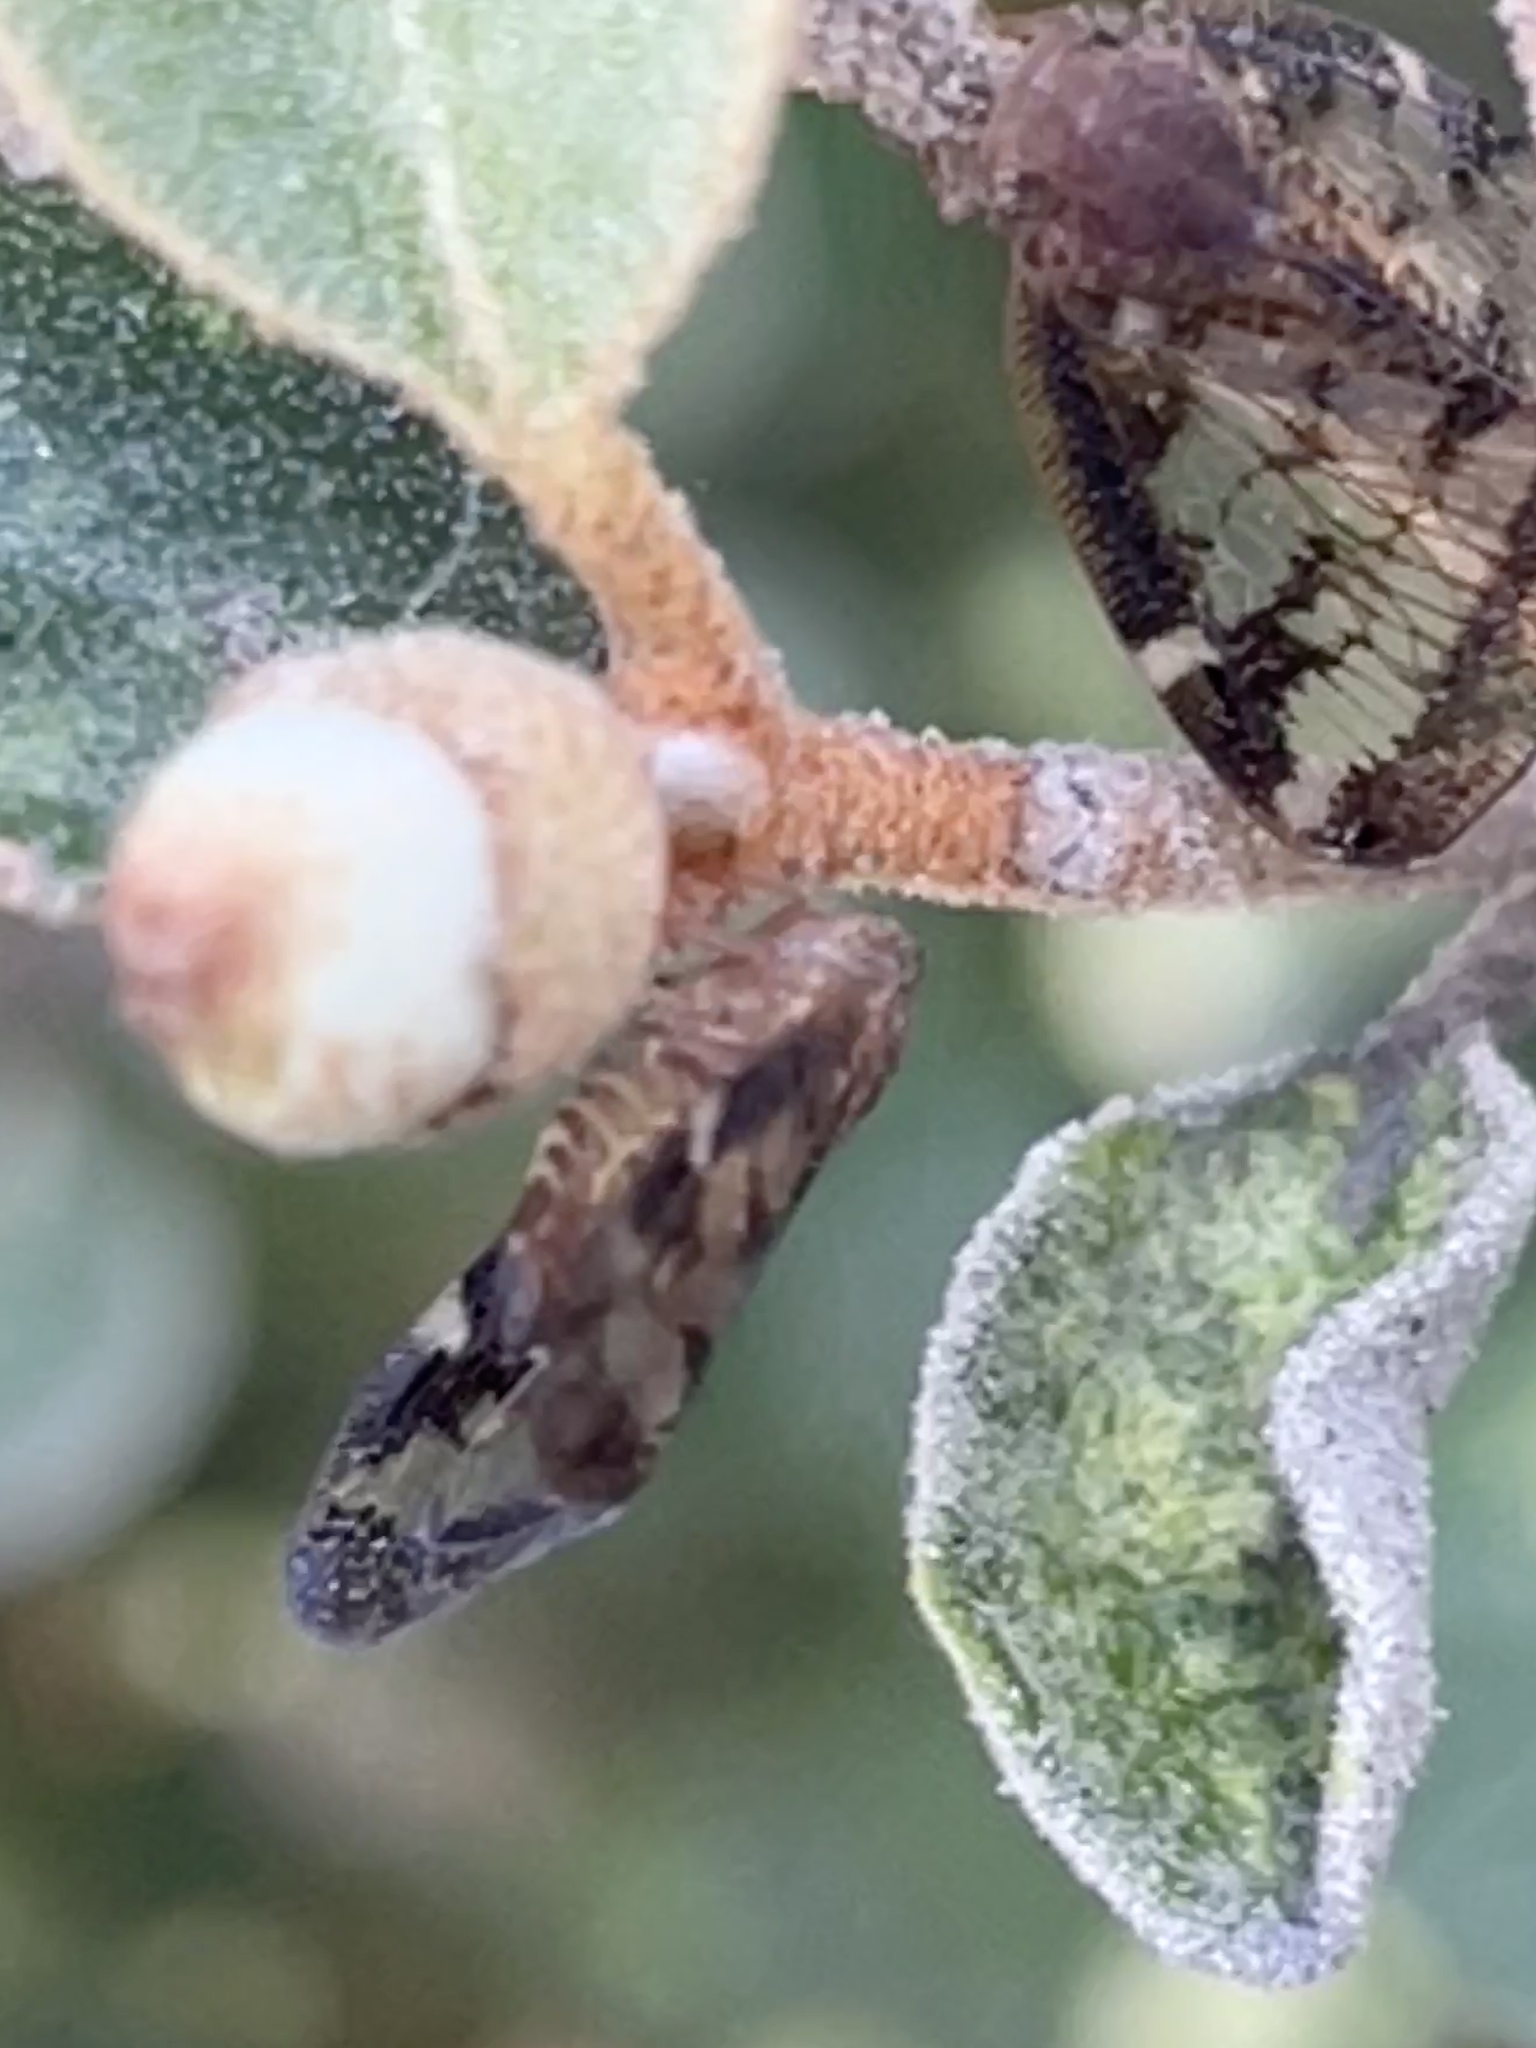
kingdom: Animalia
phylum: Arthropoda
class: Insecta
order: Hemiptera
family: Ricaniidae
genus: Scolypopa
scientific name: Scolypopa australis
